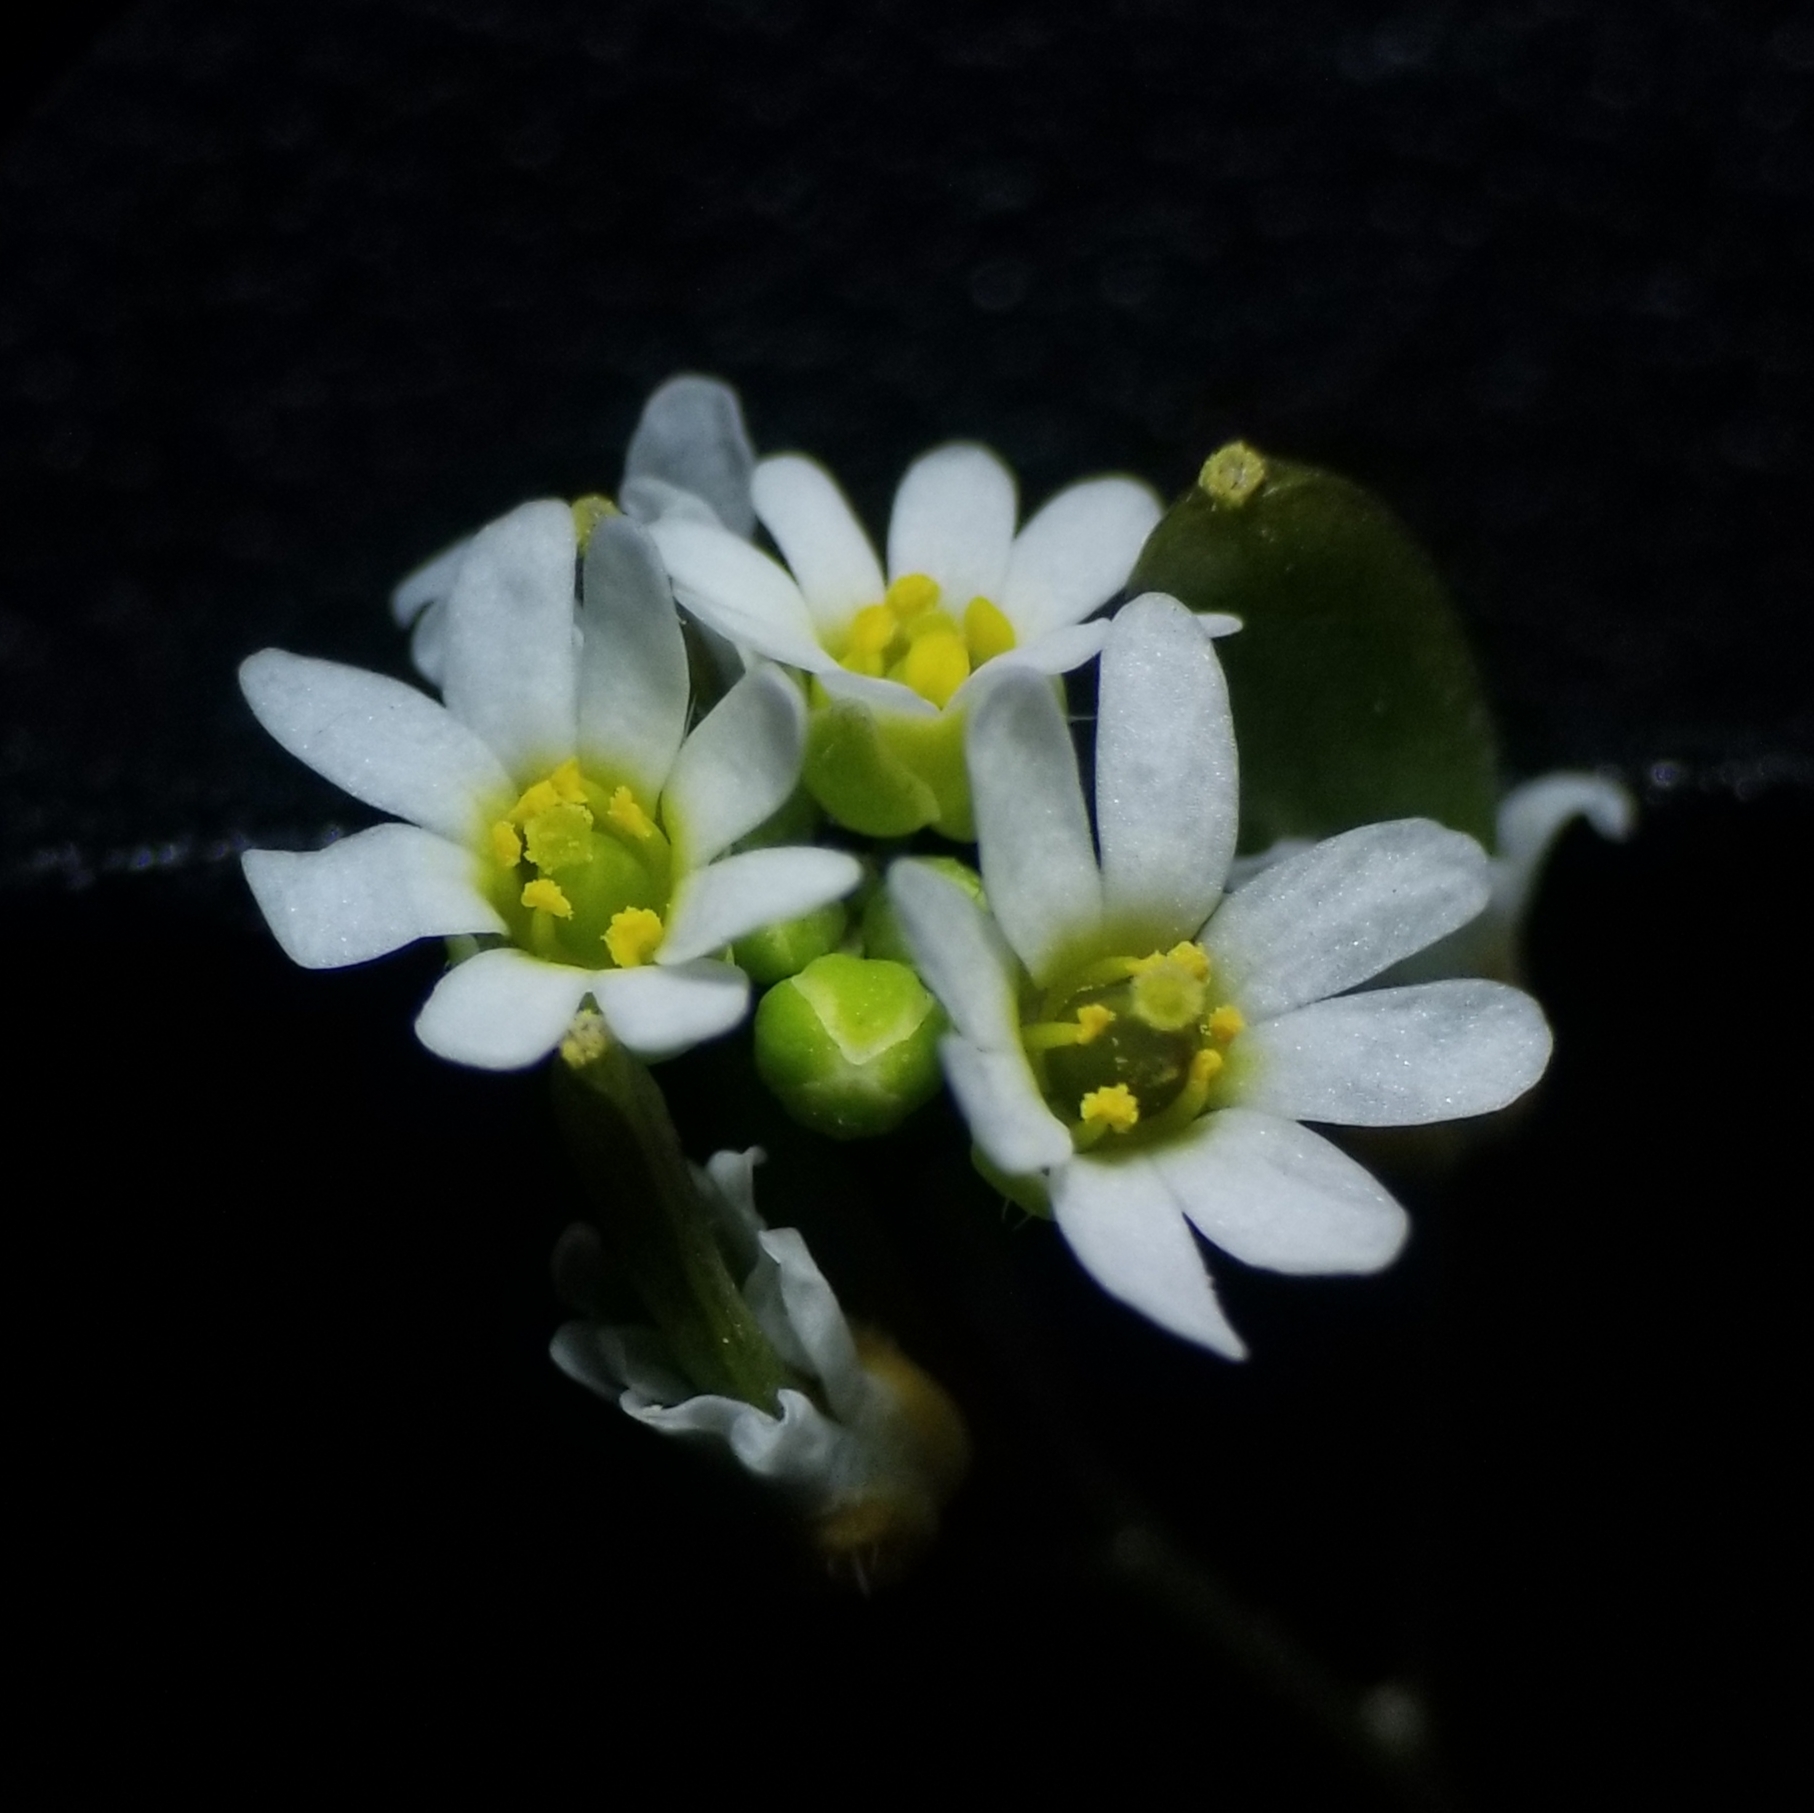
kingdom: Plantae
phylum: Tracheophyta
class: Magnoliopsida
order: Brassicales
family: Brassicaceae
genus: Draba
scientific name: Draba verna
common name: Spring draba
